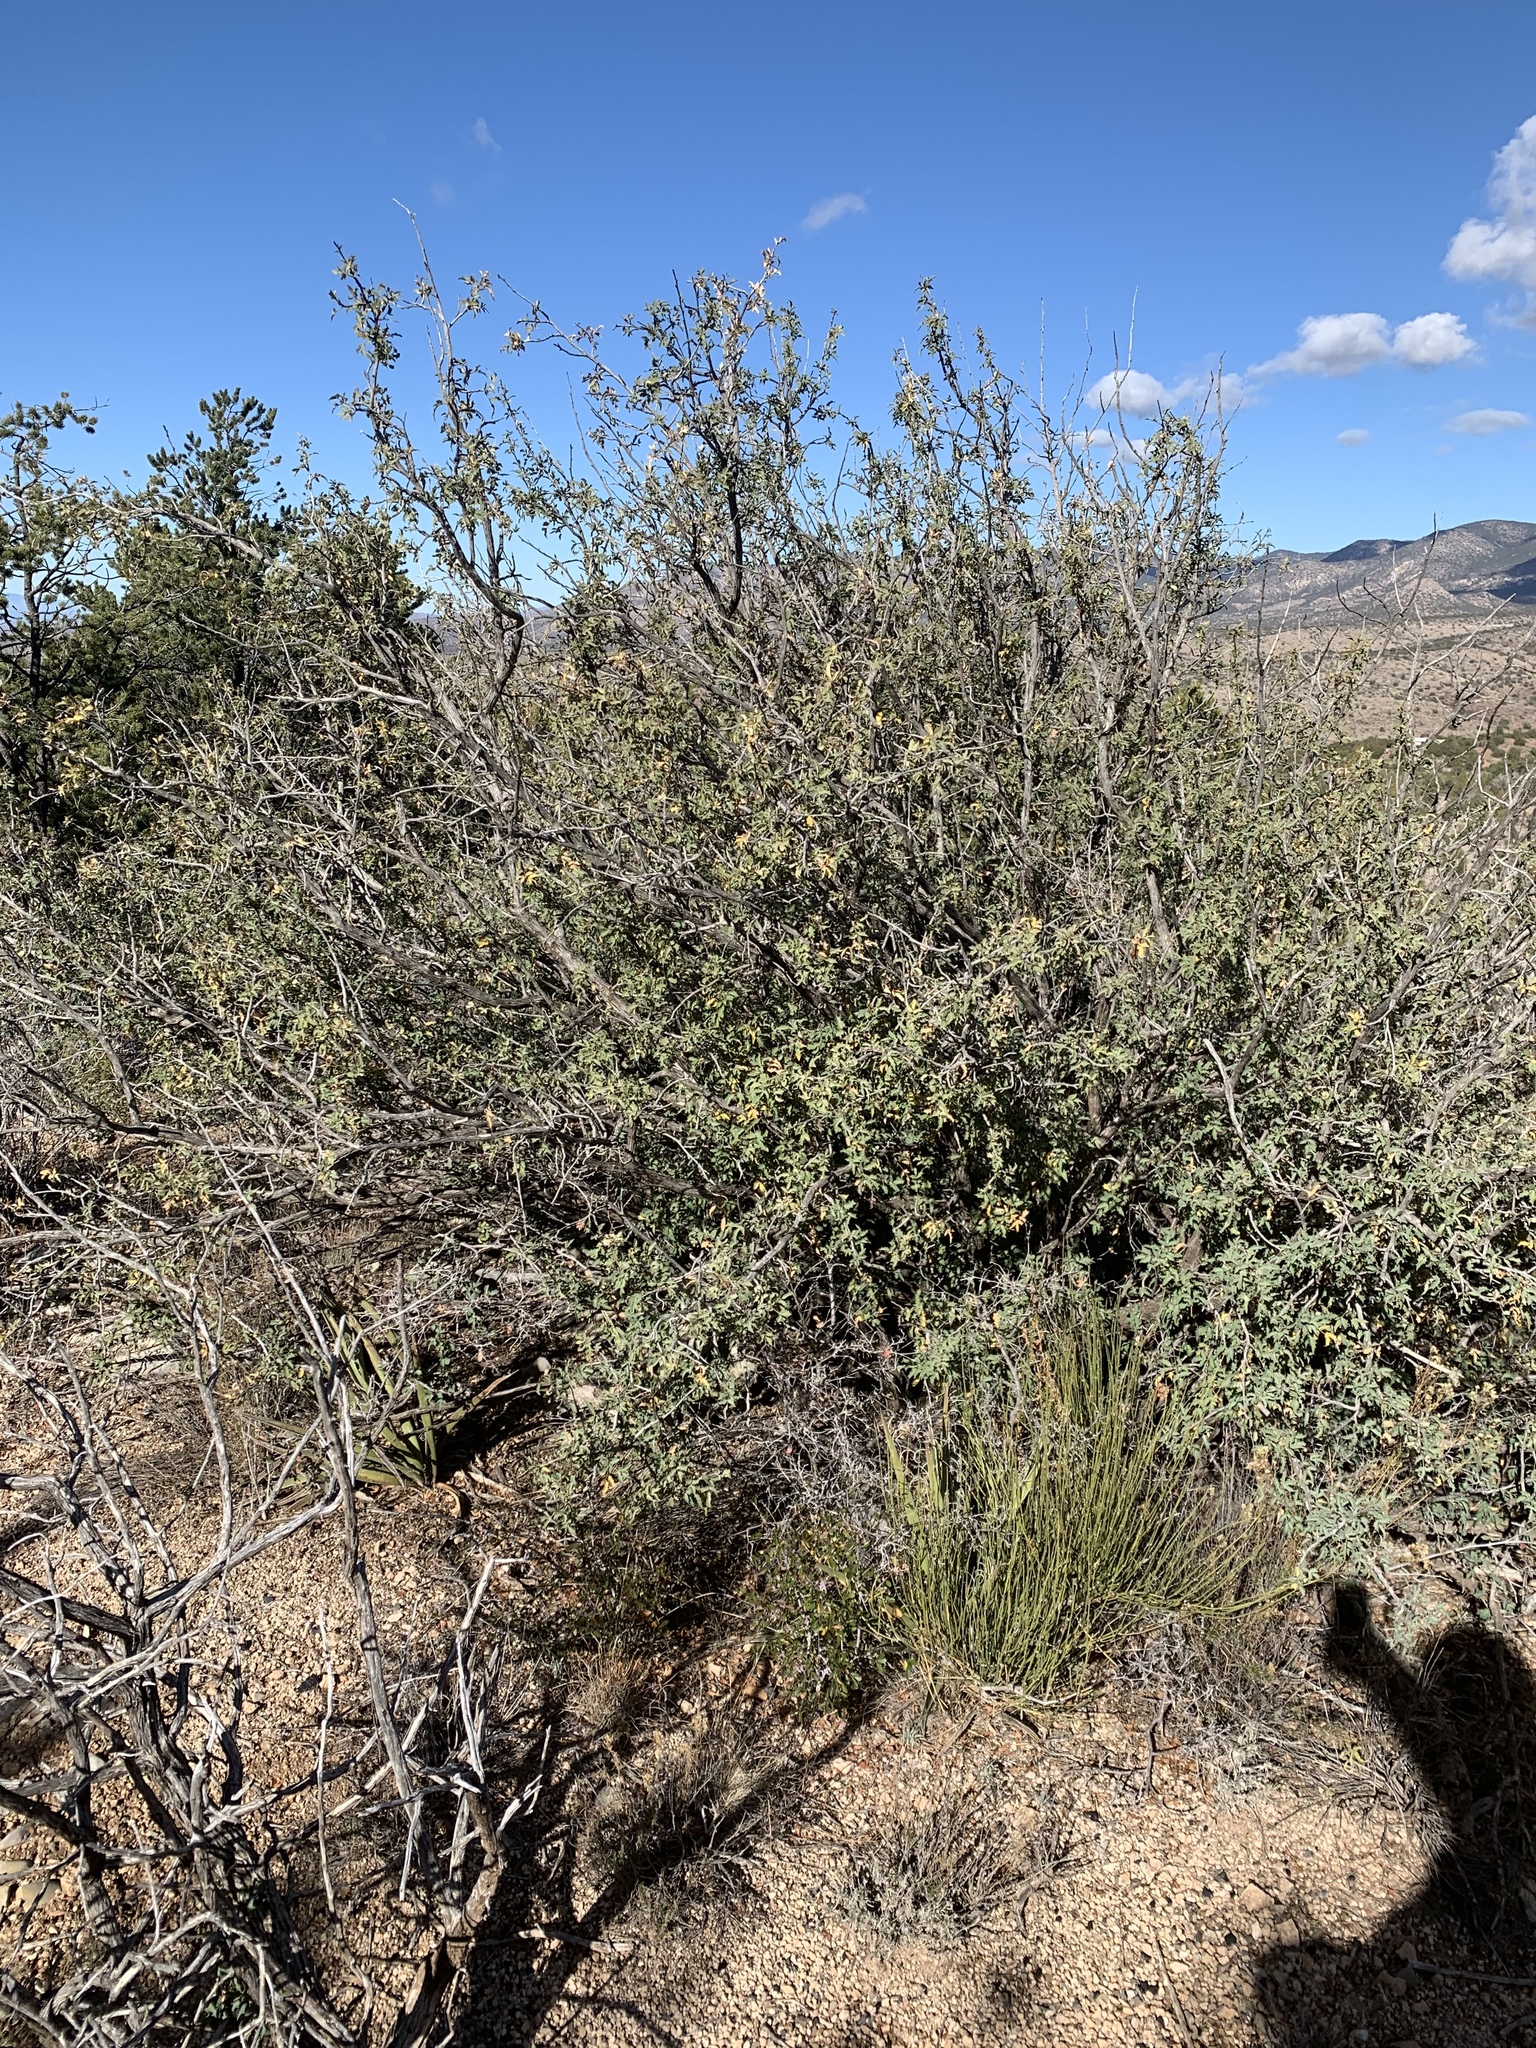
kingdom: Plantae
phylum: Tracheophyta
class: Magnoliopsida
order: Ranunculales
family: Berberidaceae
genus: Alloberberis
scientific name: Alloberberis haematocarpa
